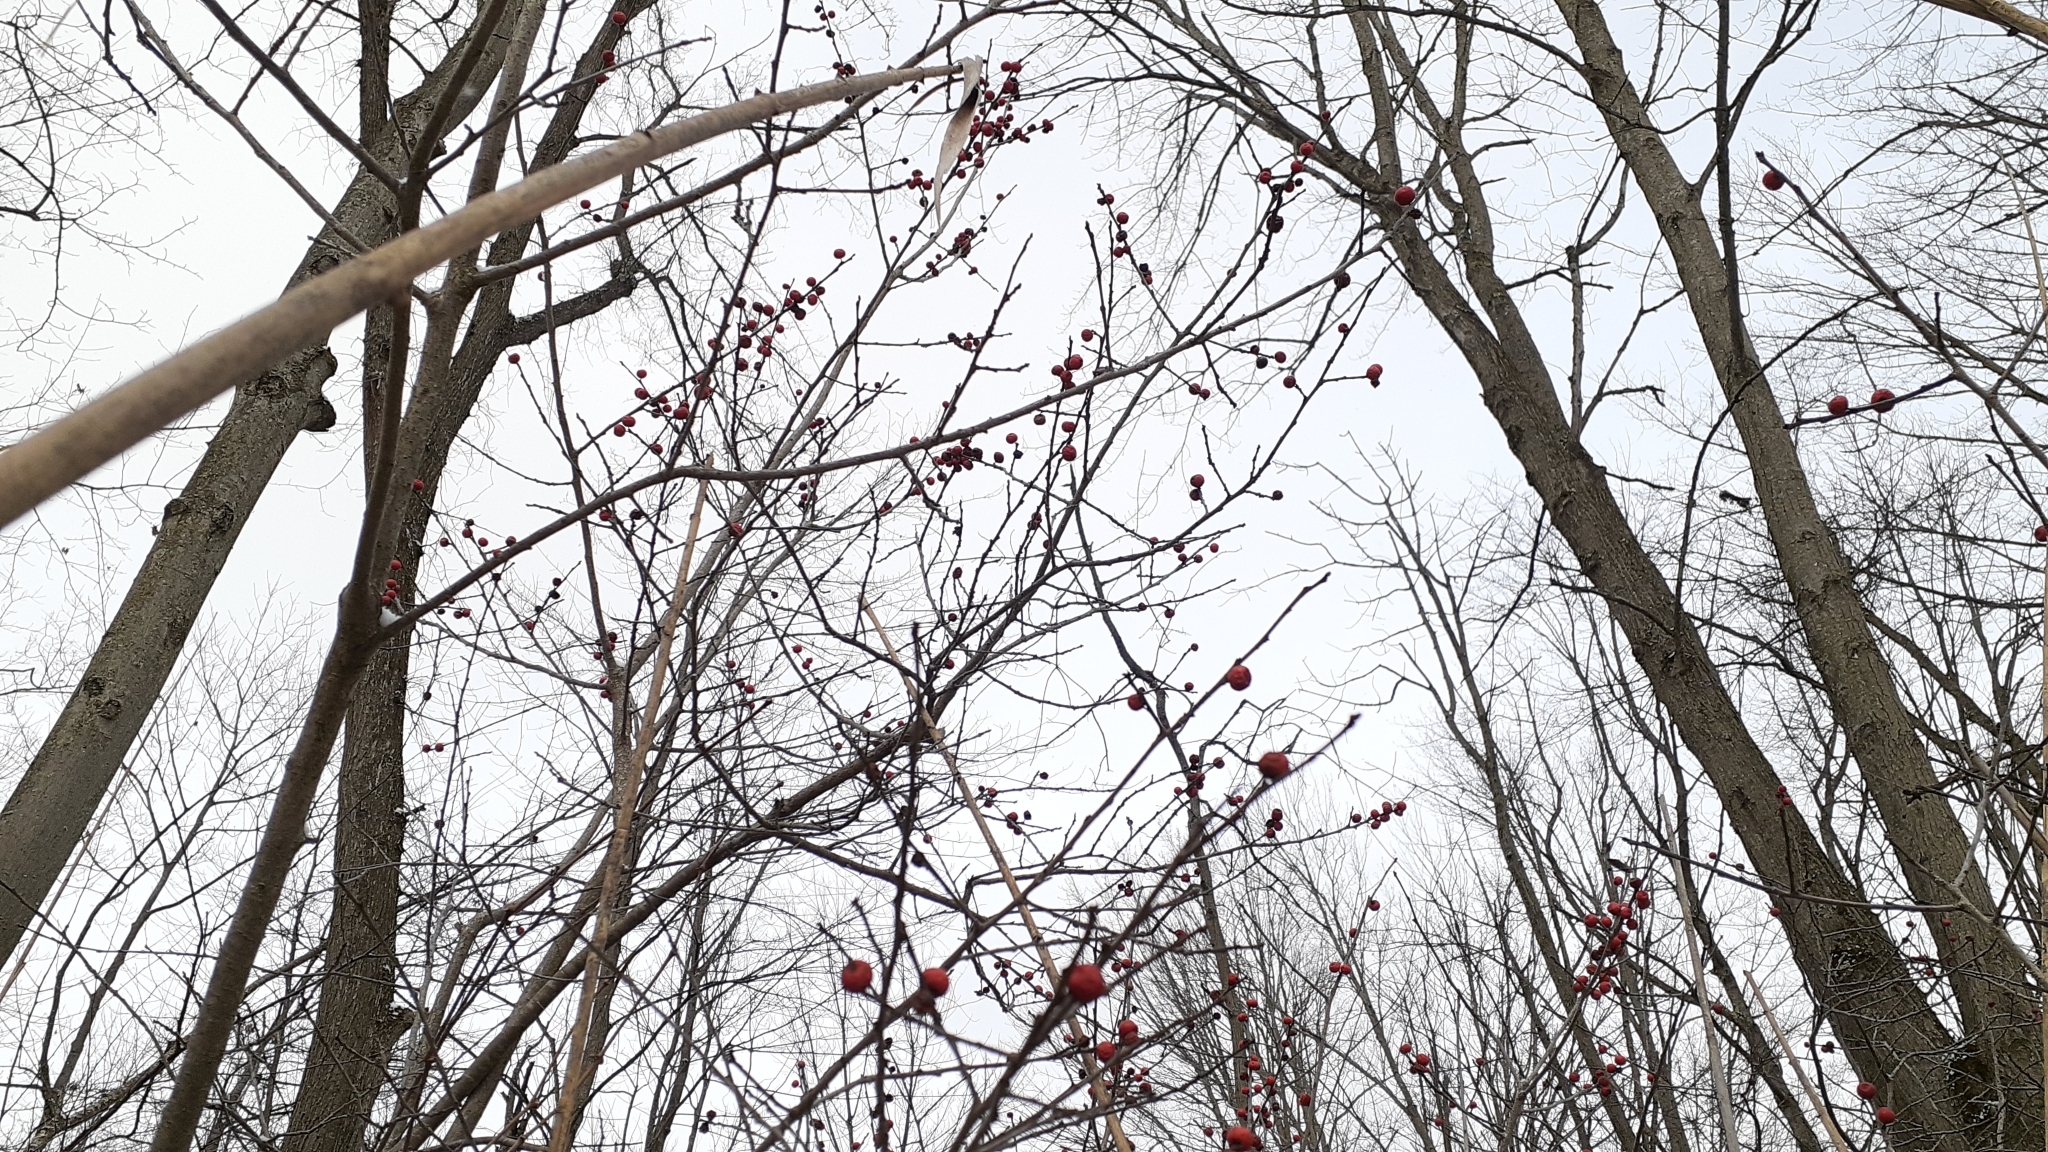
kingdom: Plantae
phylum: Tracheophyta
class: Magnoliopsida
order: Aquifoliales
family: Aquifoliaceae
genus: Ilex
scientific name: Ilex verticillata
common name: Virginia winterberry
